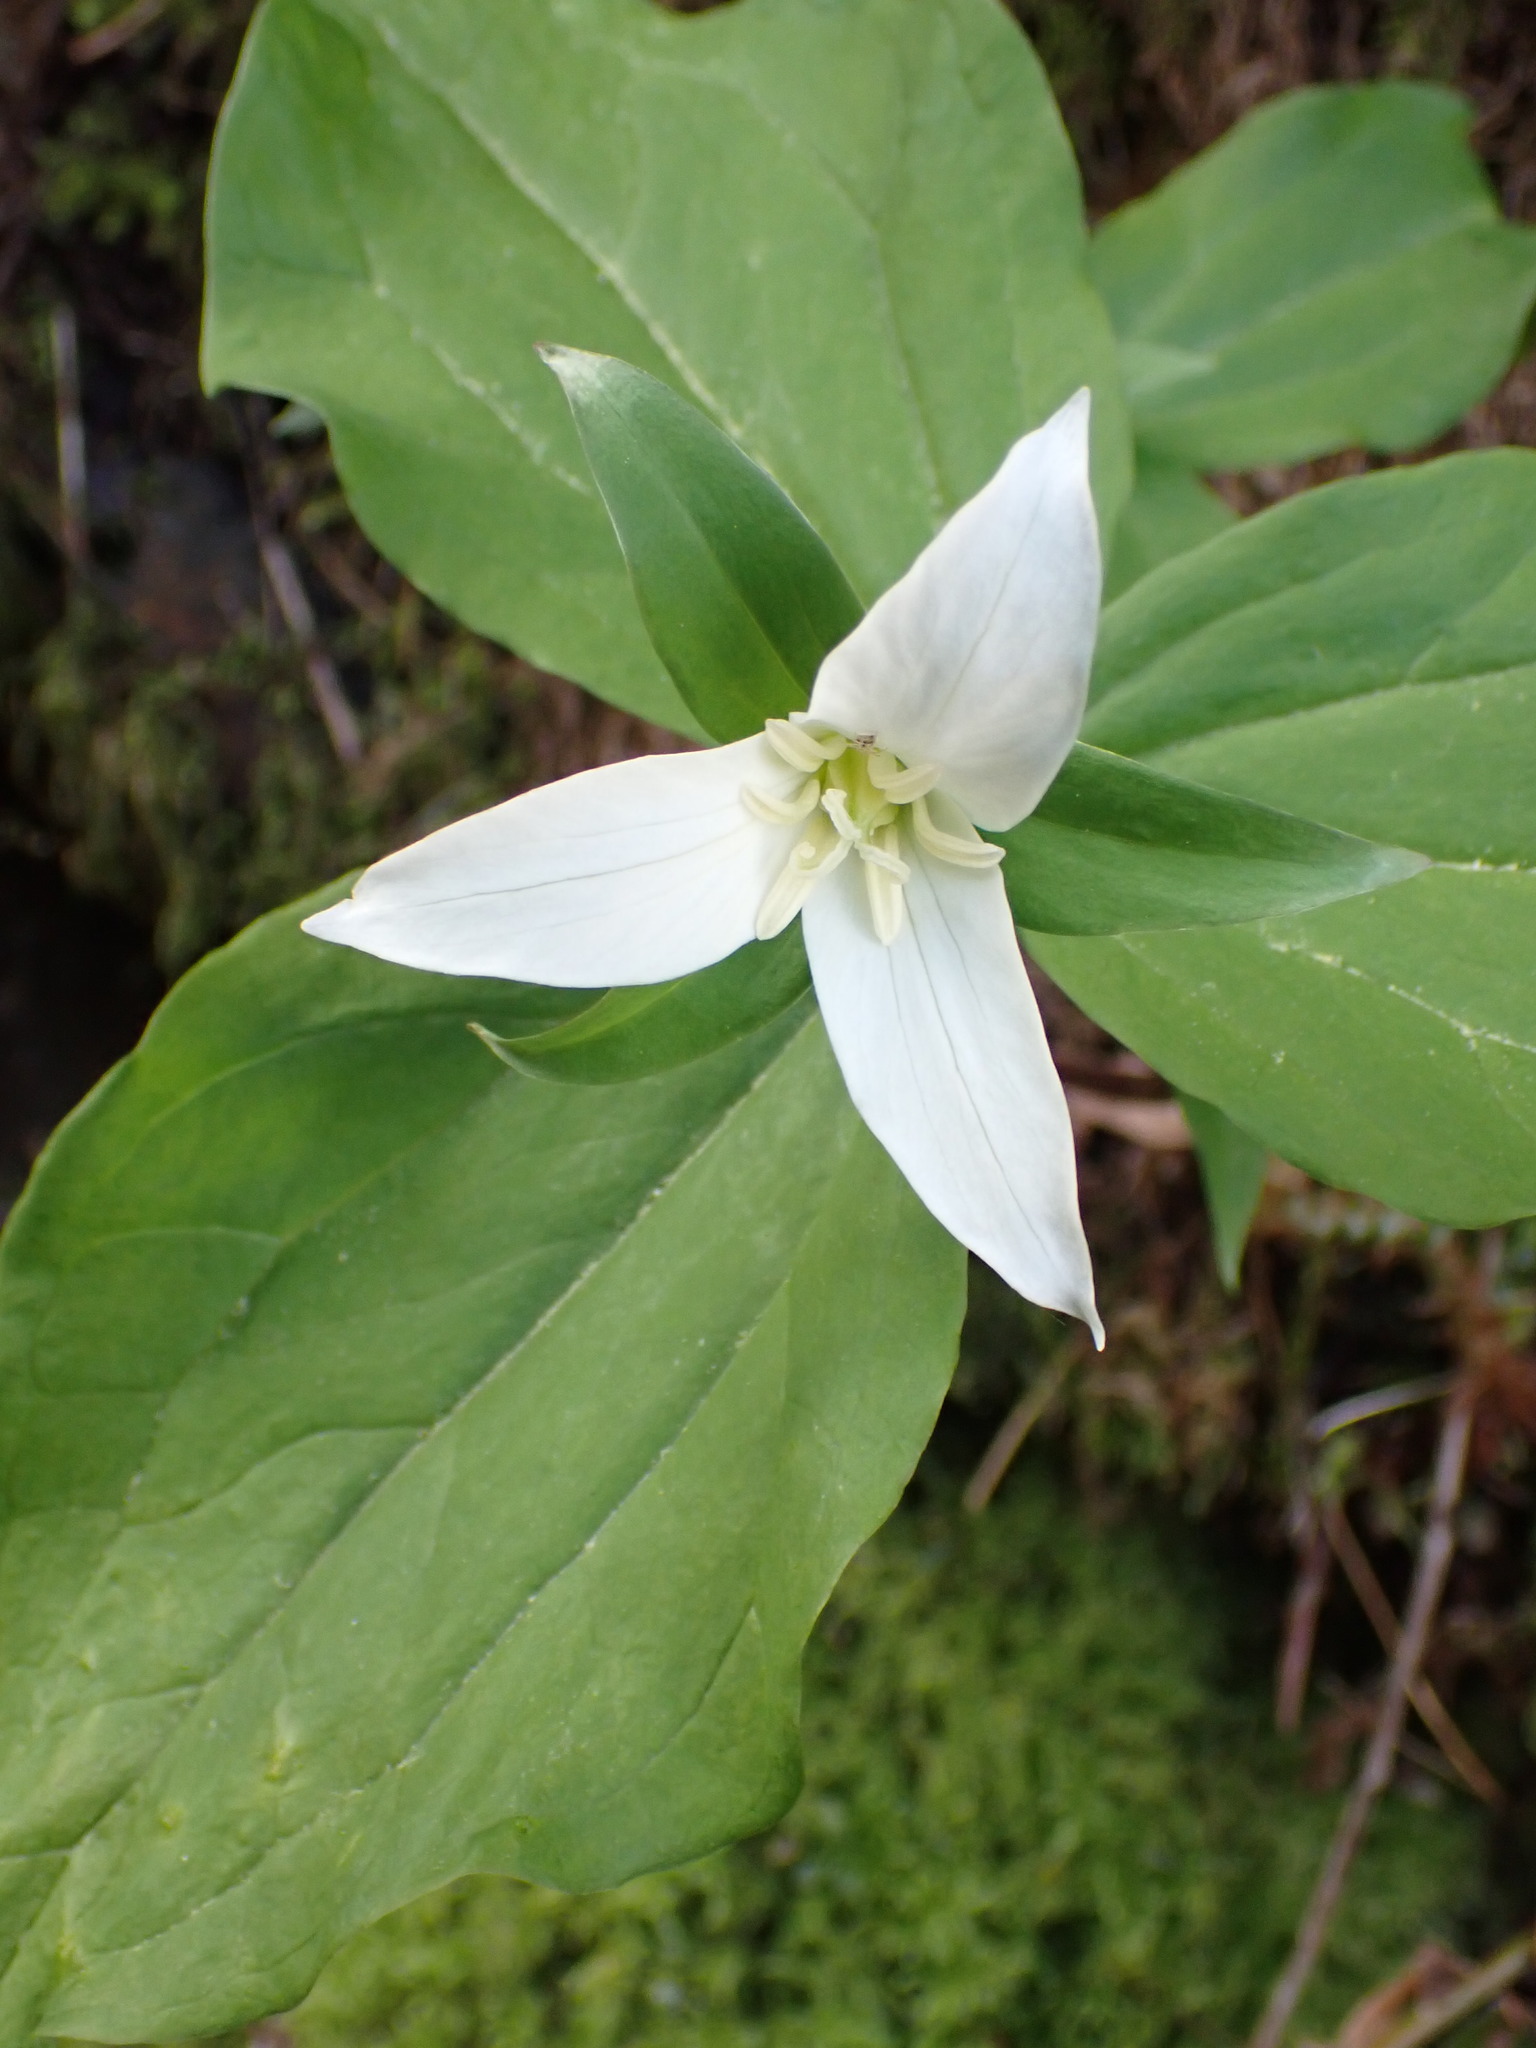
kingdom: Plantae
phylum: Tracheophyta
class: Liliopsida
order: Liliales
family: Melanthiaceae
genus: Trillium
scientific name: Trillium ovatum
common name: Pacific trillium
